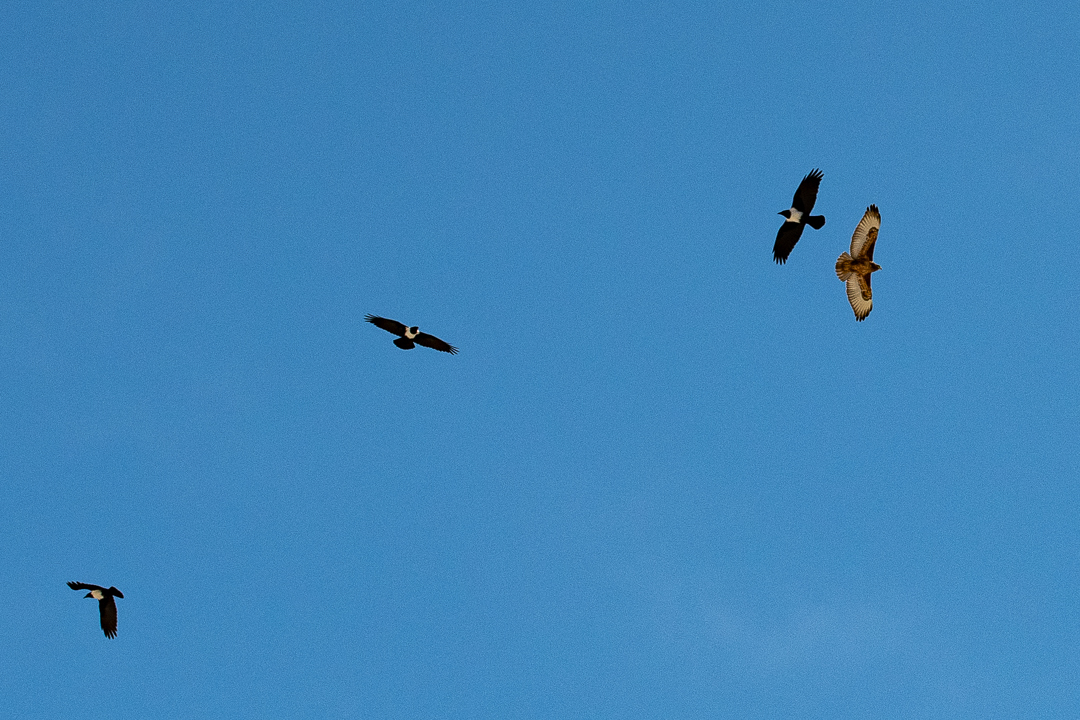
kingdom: Animalia
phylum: Chordata
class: Aves
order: Passeriformes
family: Corvidae
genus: Corvus
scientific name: Corvus albus
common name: Pied crow
